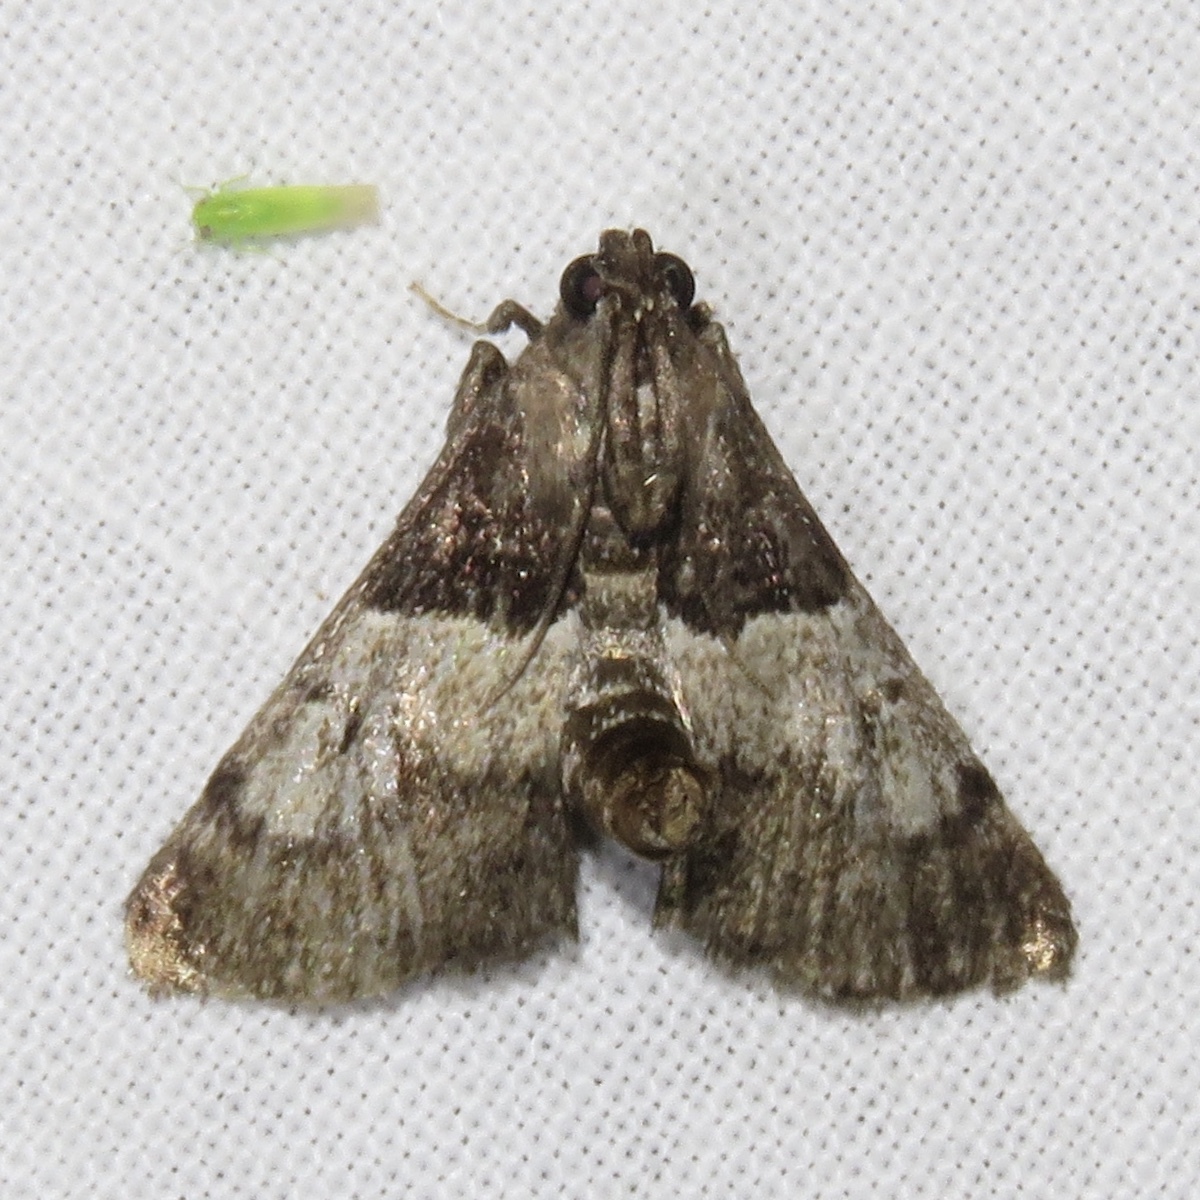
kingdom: Animalia
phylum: Arthropoda
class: Insecta
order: Lepidoptera
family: Pyralidae
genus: Macalla
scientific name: Macalla zelleri
